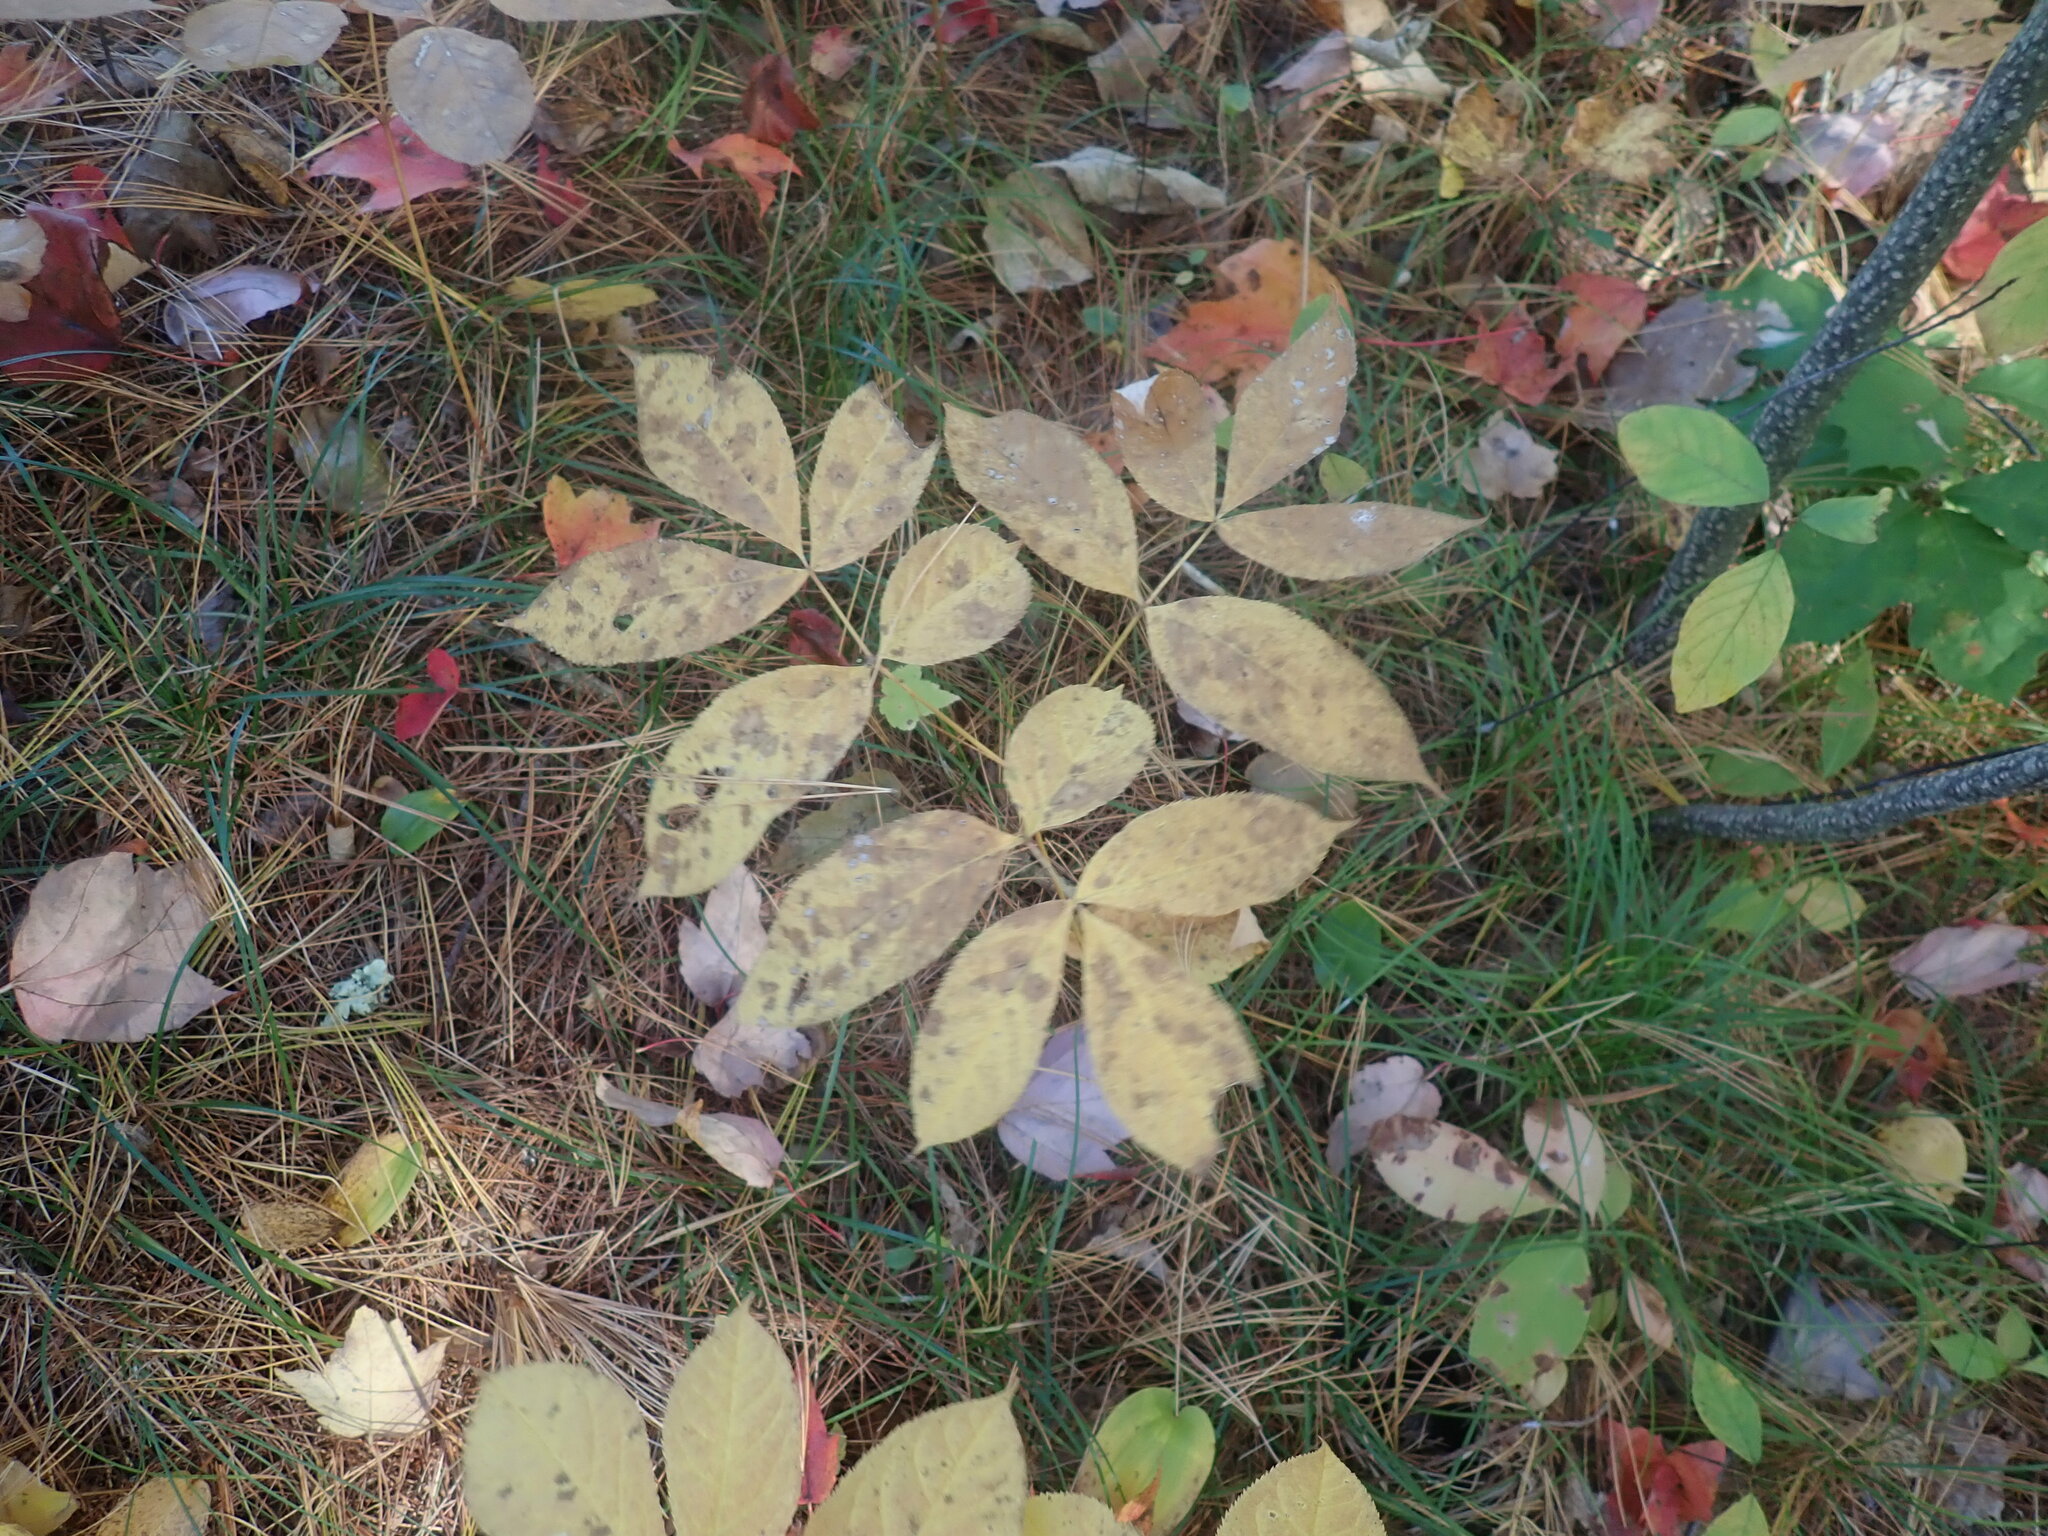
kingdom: Plantae
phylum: Tracheophyta
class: Magnoliopsida
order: Apiales
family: Araliaceae
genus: Aralia
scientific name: Aralia nudicaulis
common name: Wild sarsaparilla
